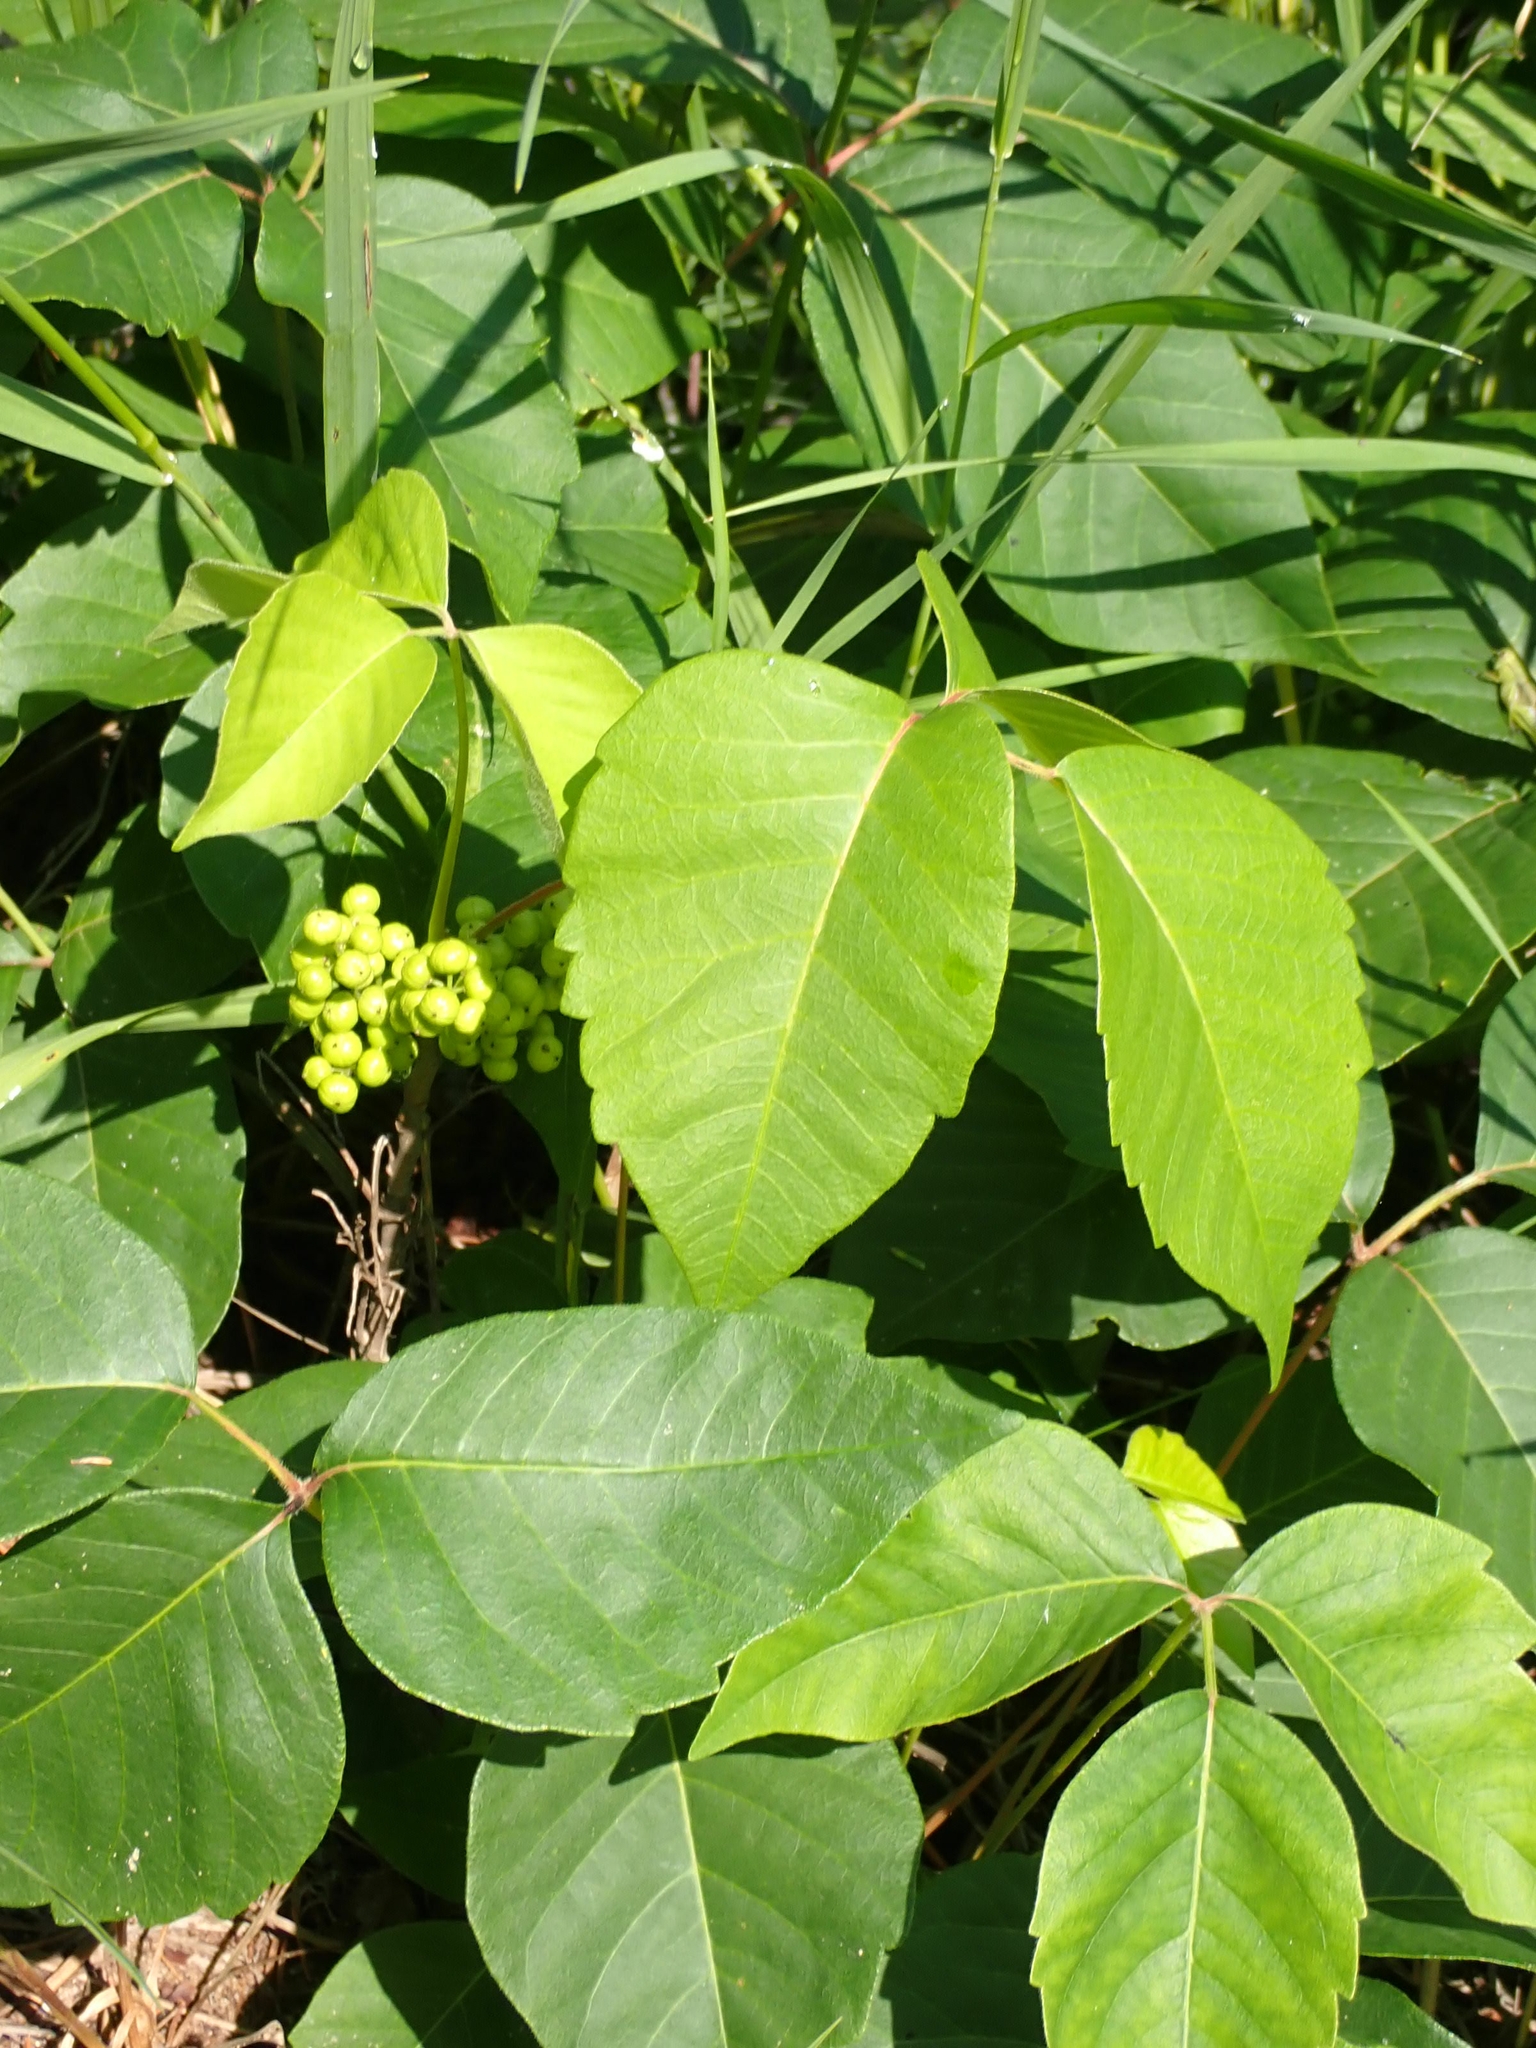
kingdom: Plantae
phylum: Tracheophyta
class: Magnoliopsida
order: Sapindales
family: Anacardiaceae
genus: Toxicodendron
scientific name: Toxicodendron rydbergii
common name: Rydberg's poison-ivy
